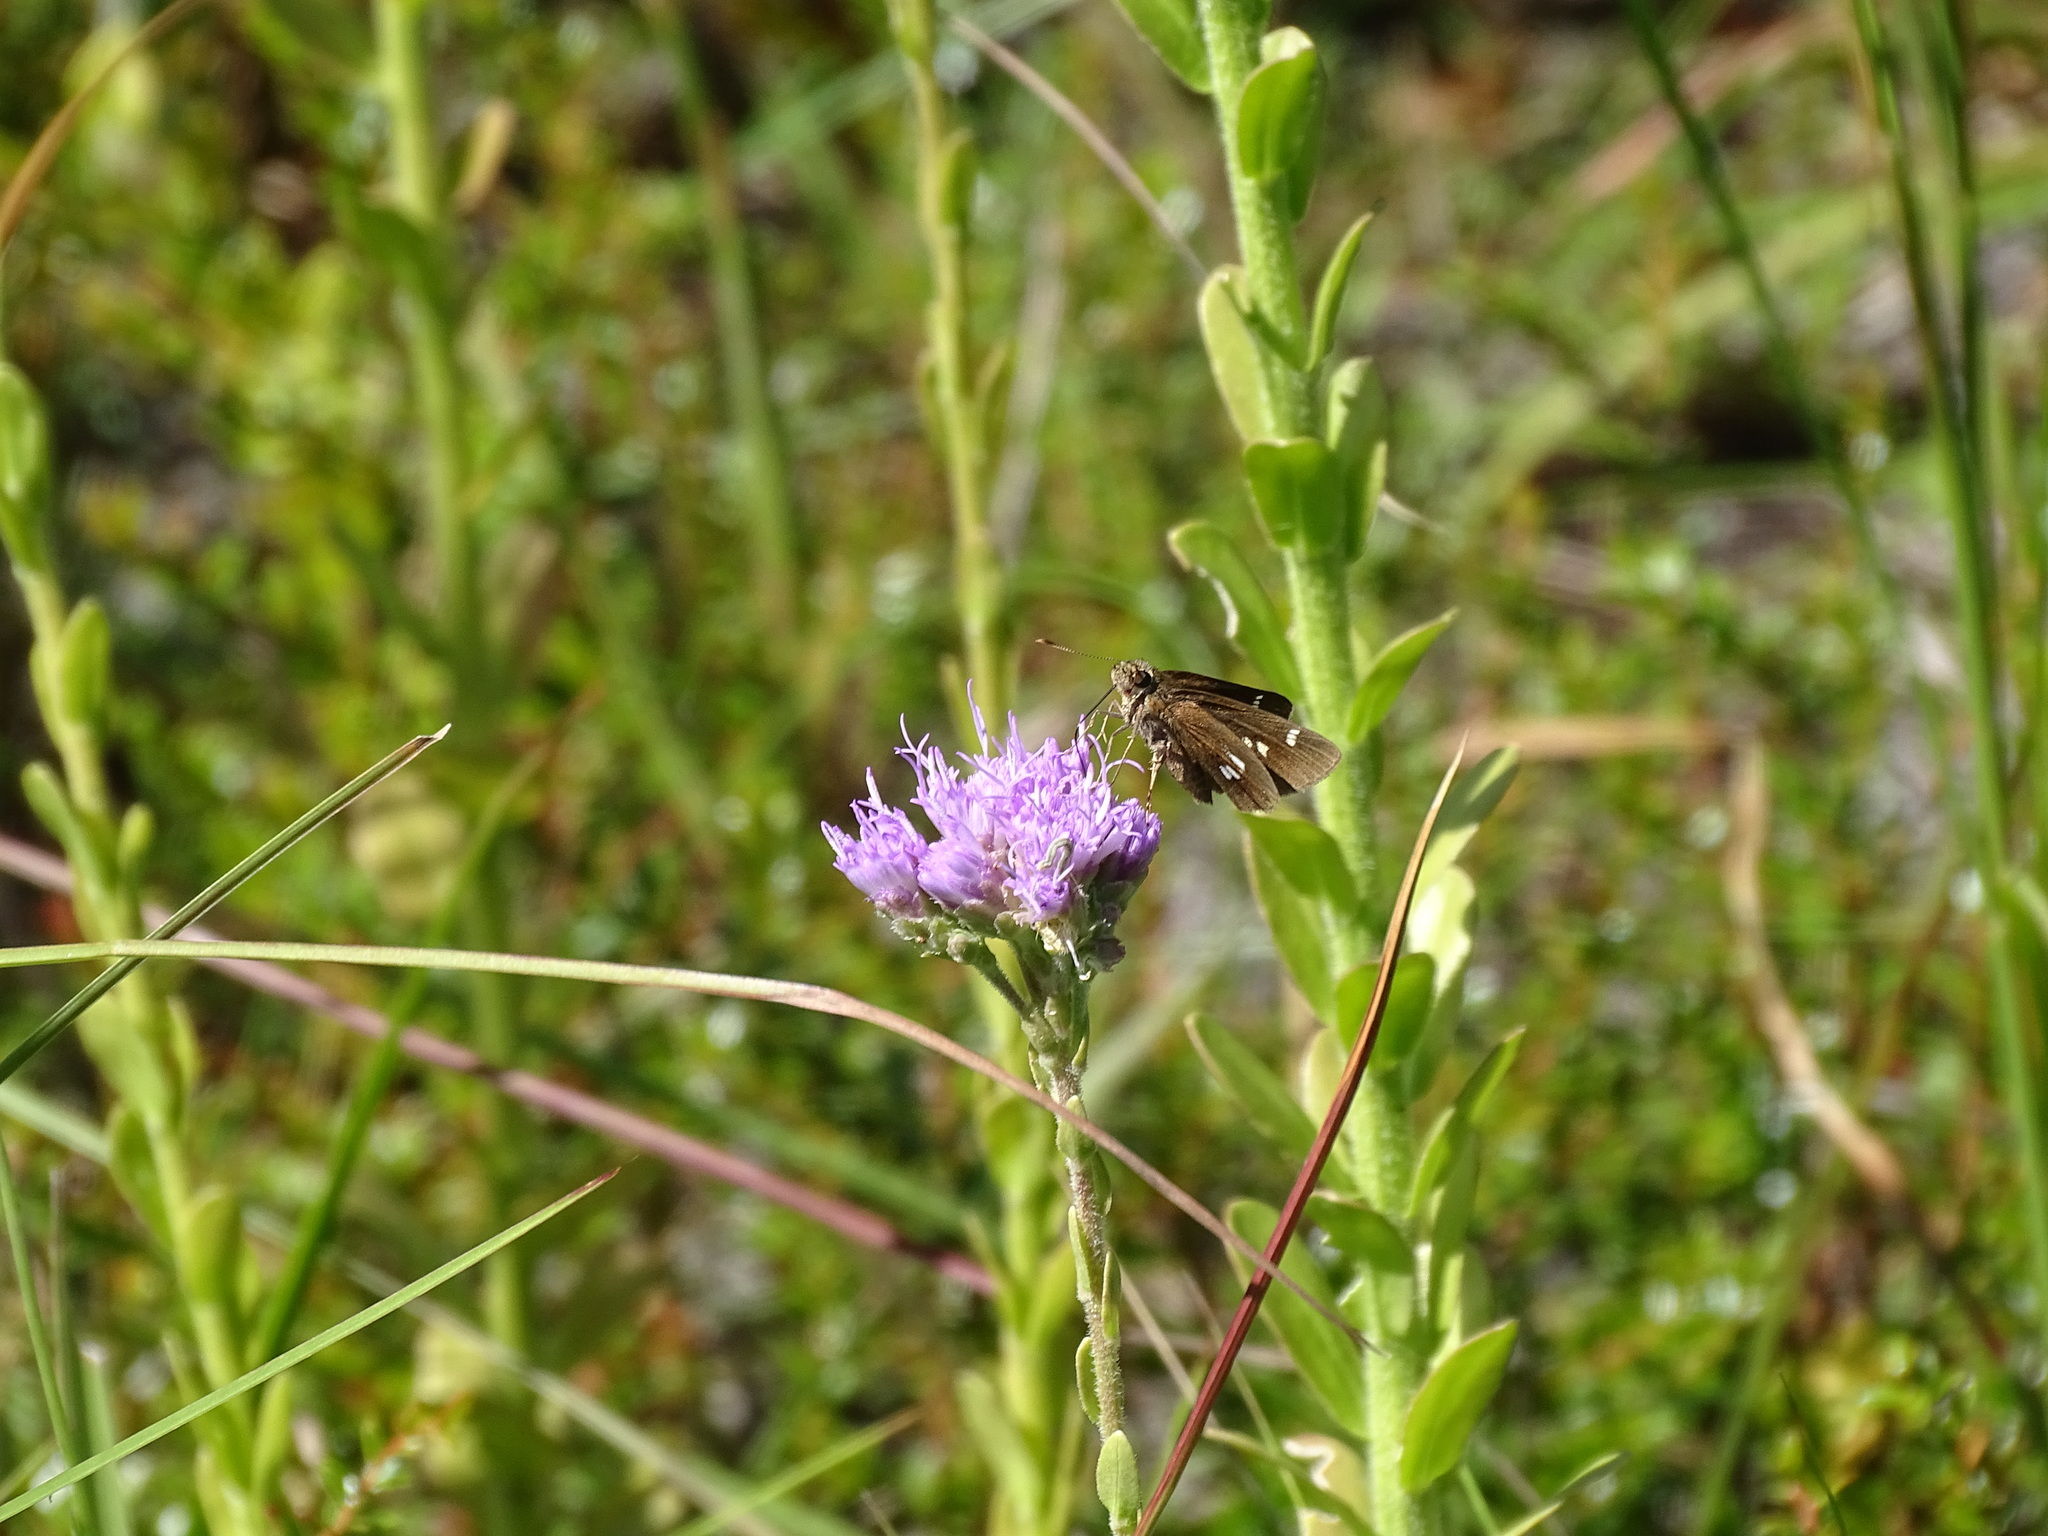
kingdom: Animalia
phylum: Arthropoda
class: Insecta
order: Lepidoptera
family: Hesperiidae
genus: Oligoria
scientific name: Oligoria maculata
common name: Twin-spot skipper
